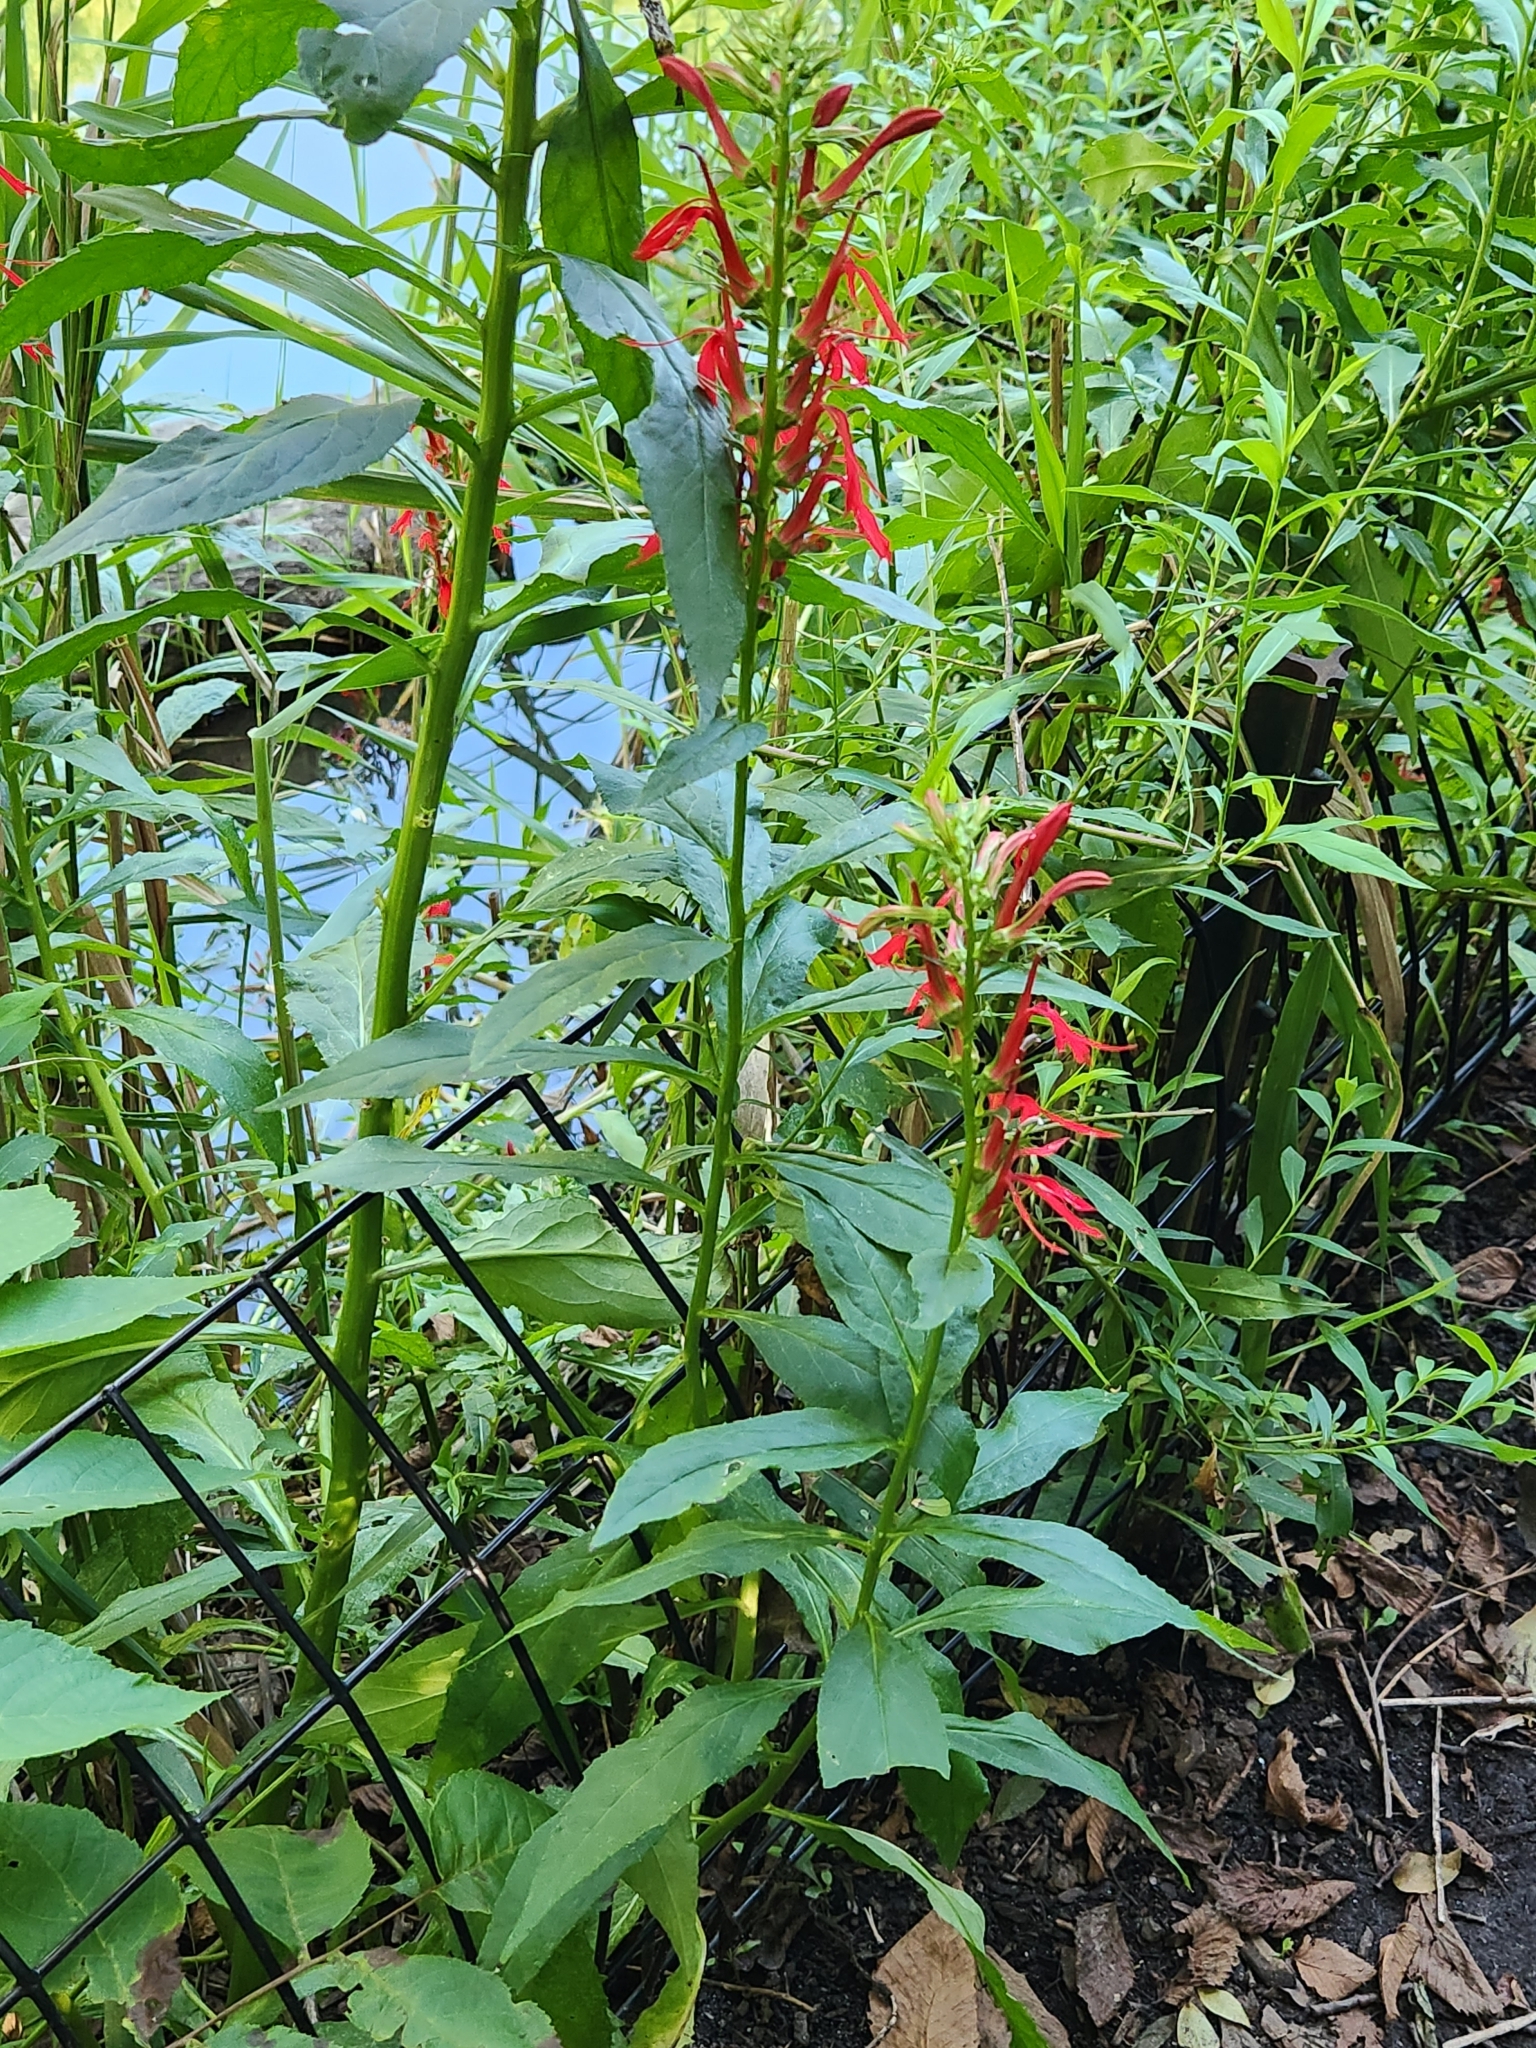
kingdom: Plantae
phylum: Tracheophyta
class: Magnoliopsida
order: Asterales
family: Campanulaceae
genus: Lobelia
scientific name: Lobelia cardinalis
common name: Cardinal flower
